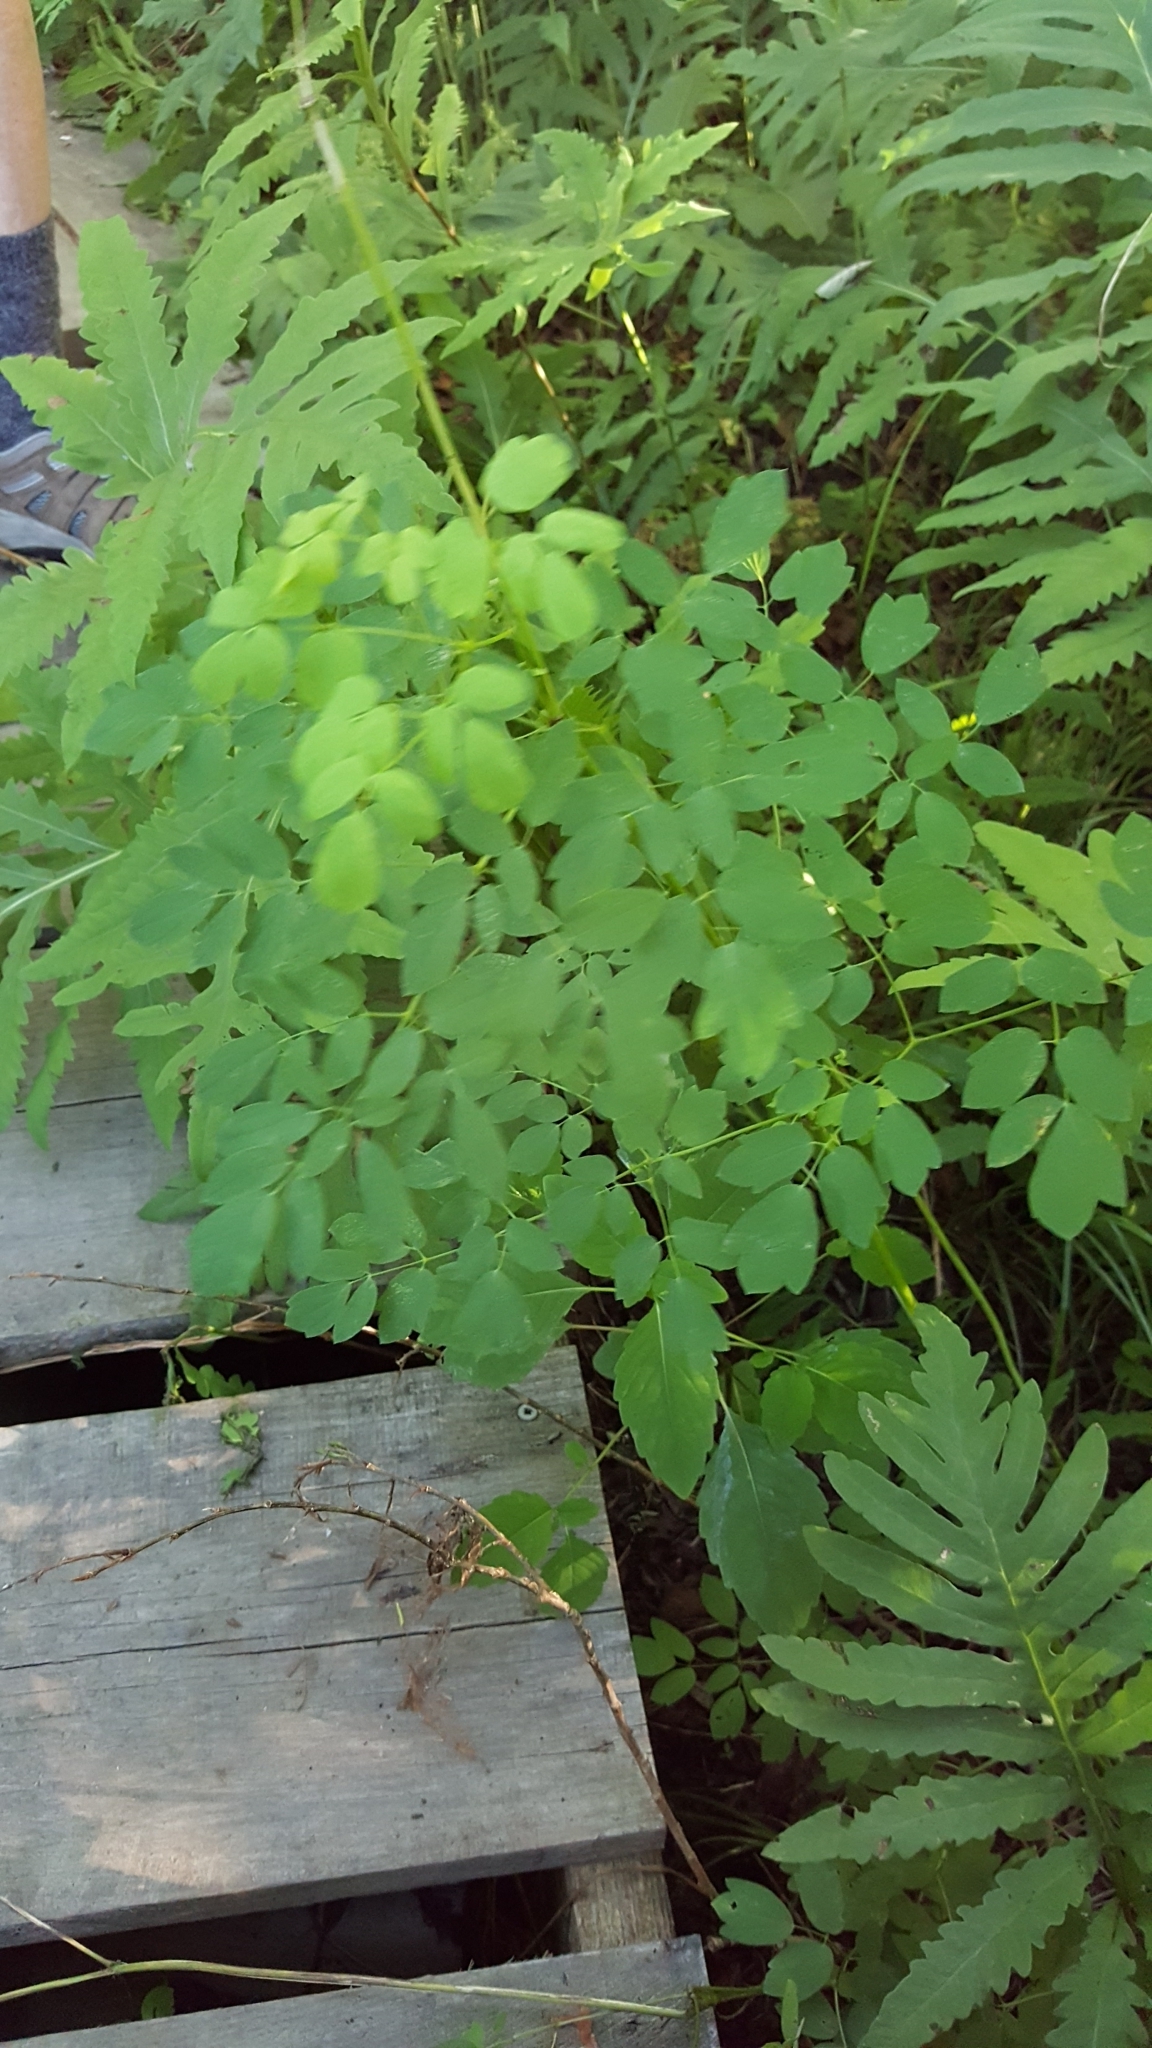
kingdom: Plantae
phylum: Tracheophyta
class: Magnoliopsida
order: Ranunculales
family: Ranunculaceae
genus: Thalictrum
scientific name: Thalictrum pubescens
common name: King-of-the-meadow
